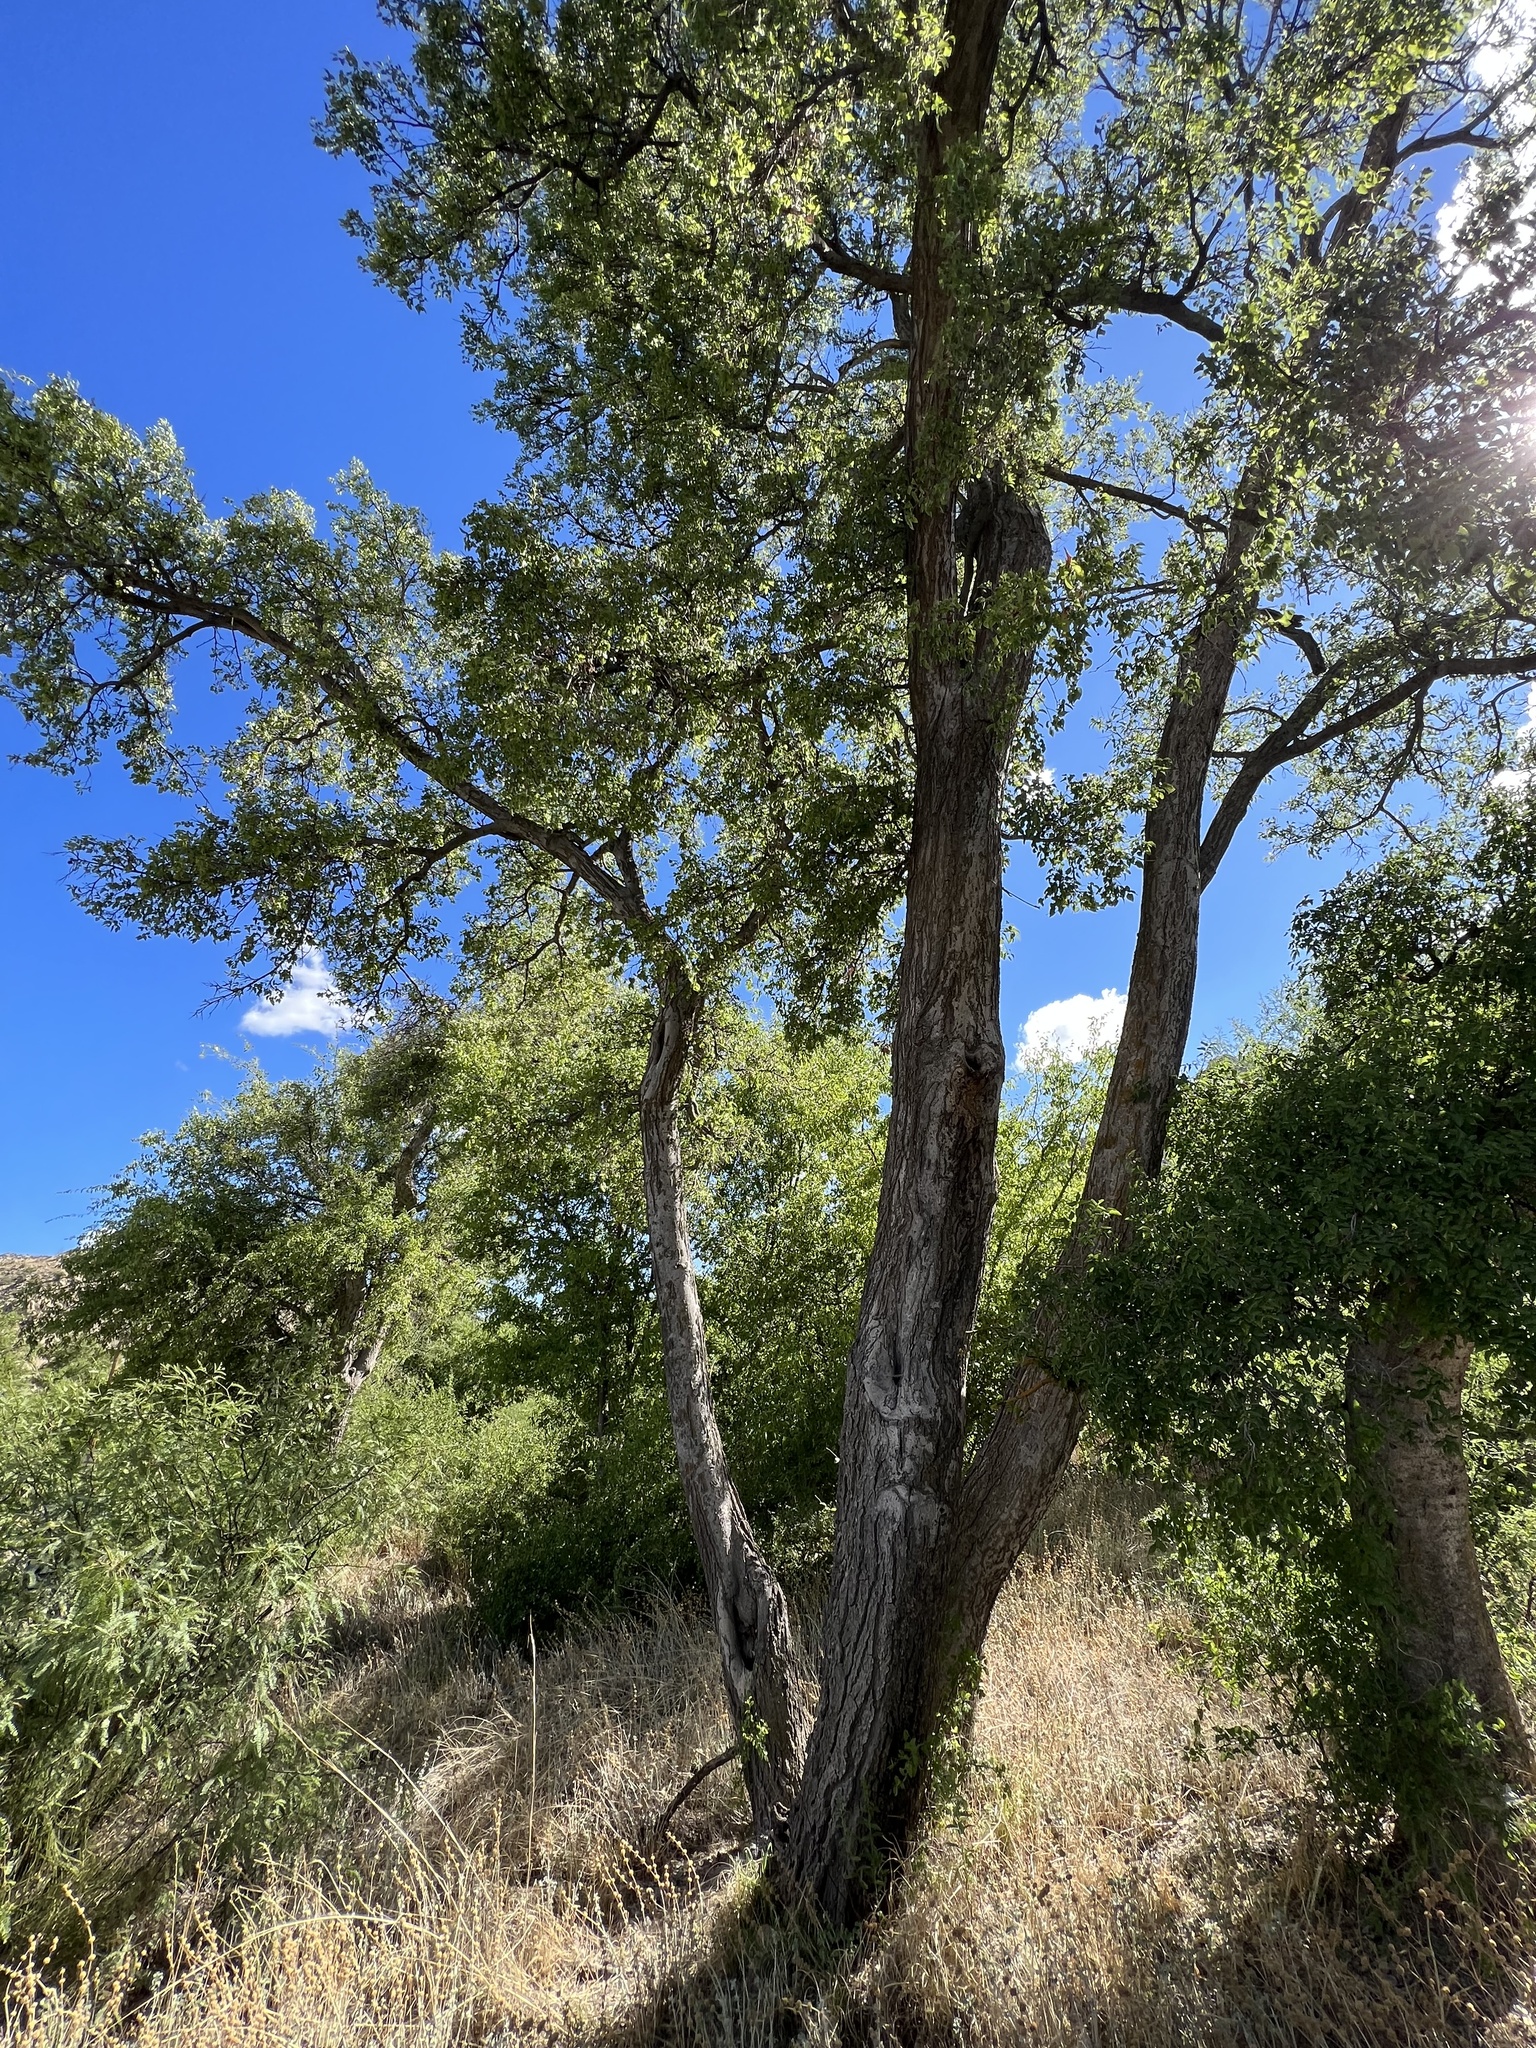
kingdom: Plantae
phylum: Tracheophyta
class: Magnoliopsida
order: Rosales
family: Cannabaceae
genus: Celtis
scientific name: Celtis reticulata
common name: Netleaf hackberry
